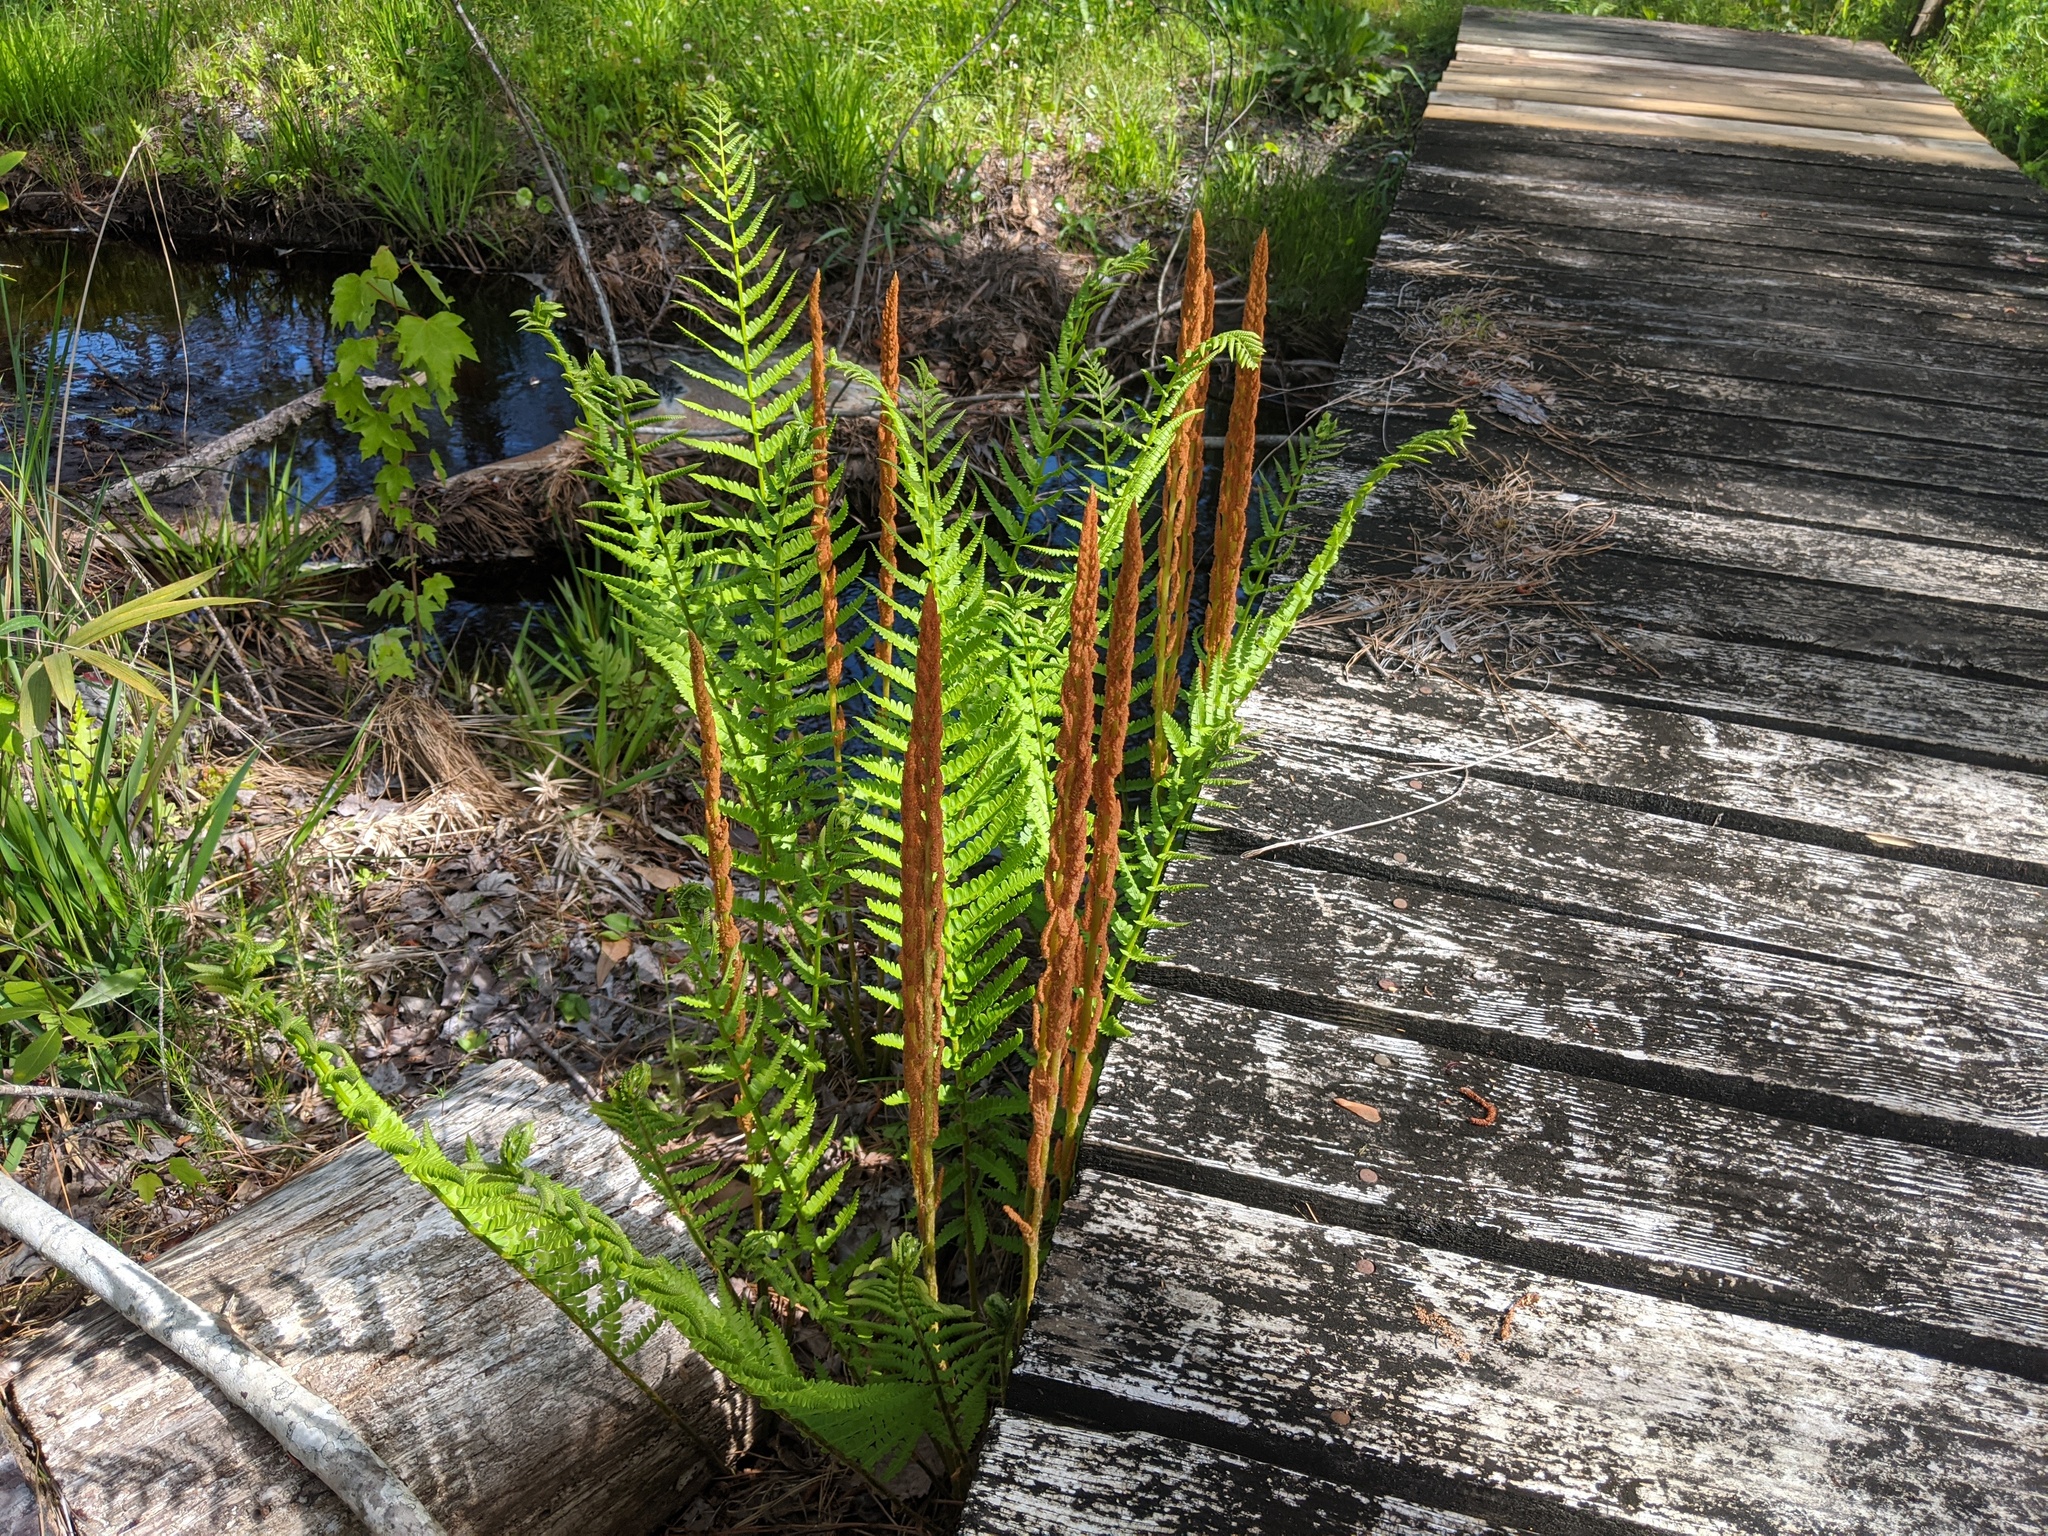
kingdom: Plantae
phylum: Tracheophyta
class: Polypodiopsida
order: Osmundales
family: Osmundaceae
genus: Osmundastrum
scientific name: Osmundastrum cinnamomeum
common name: Cinnamon fern
